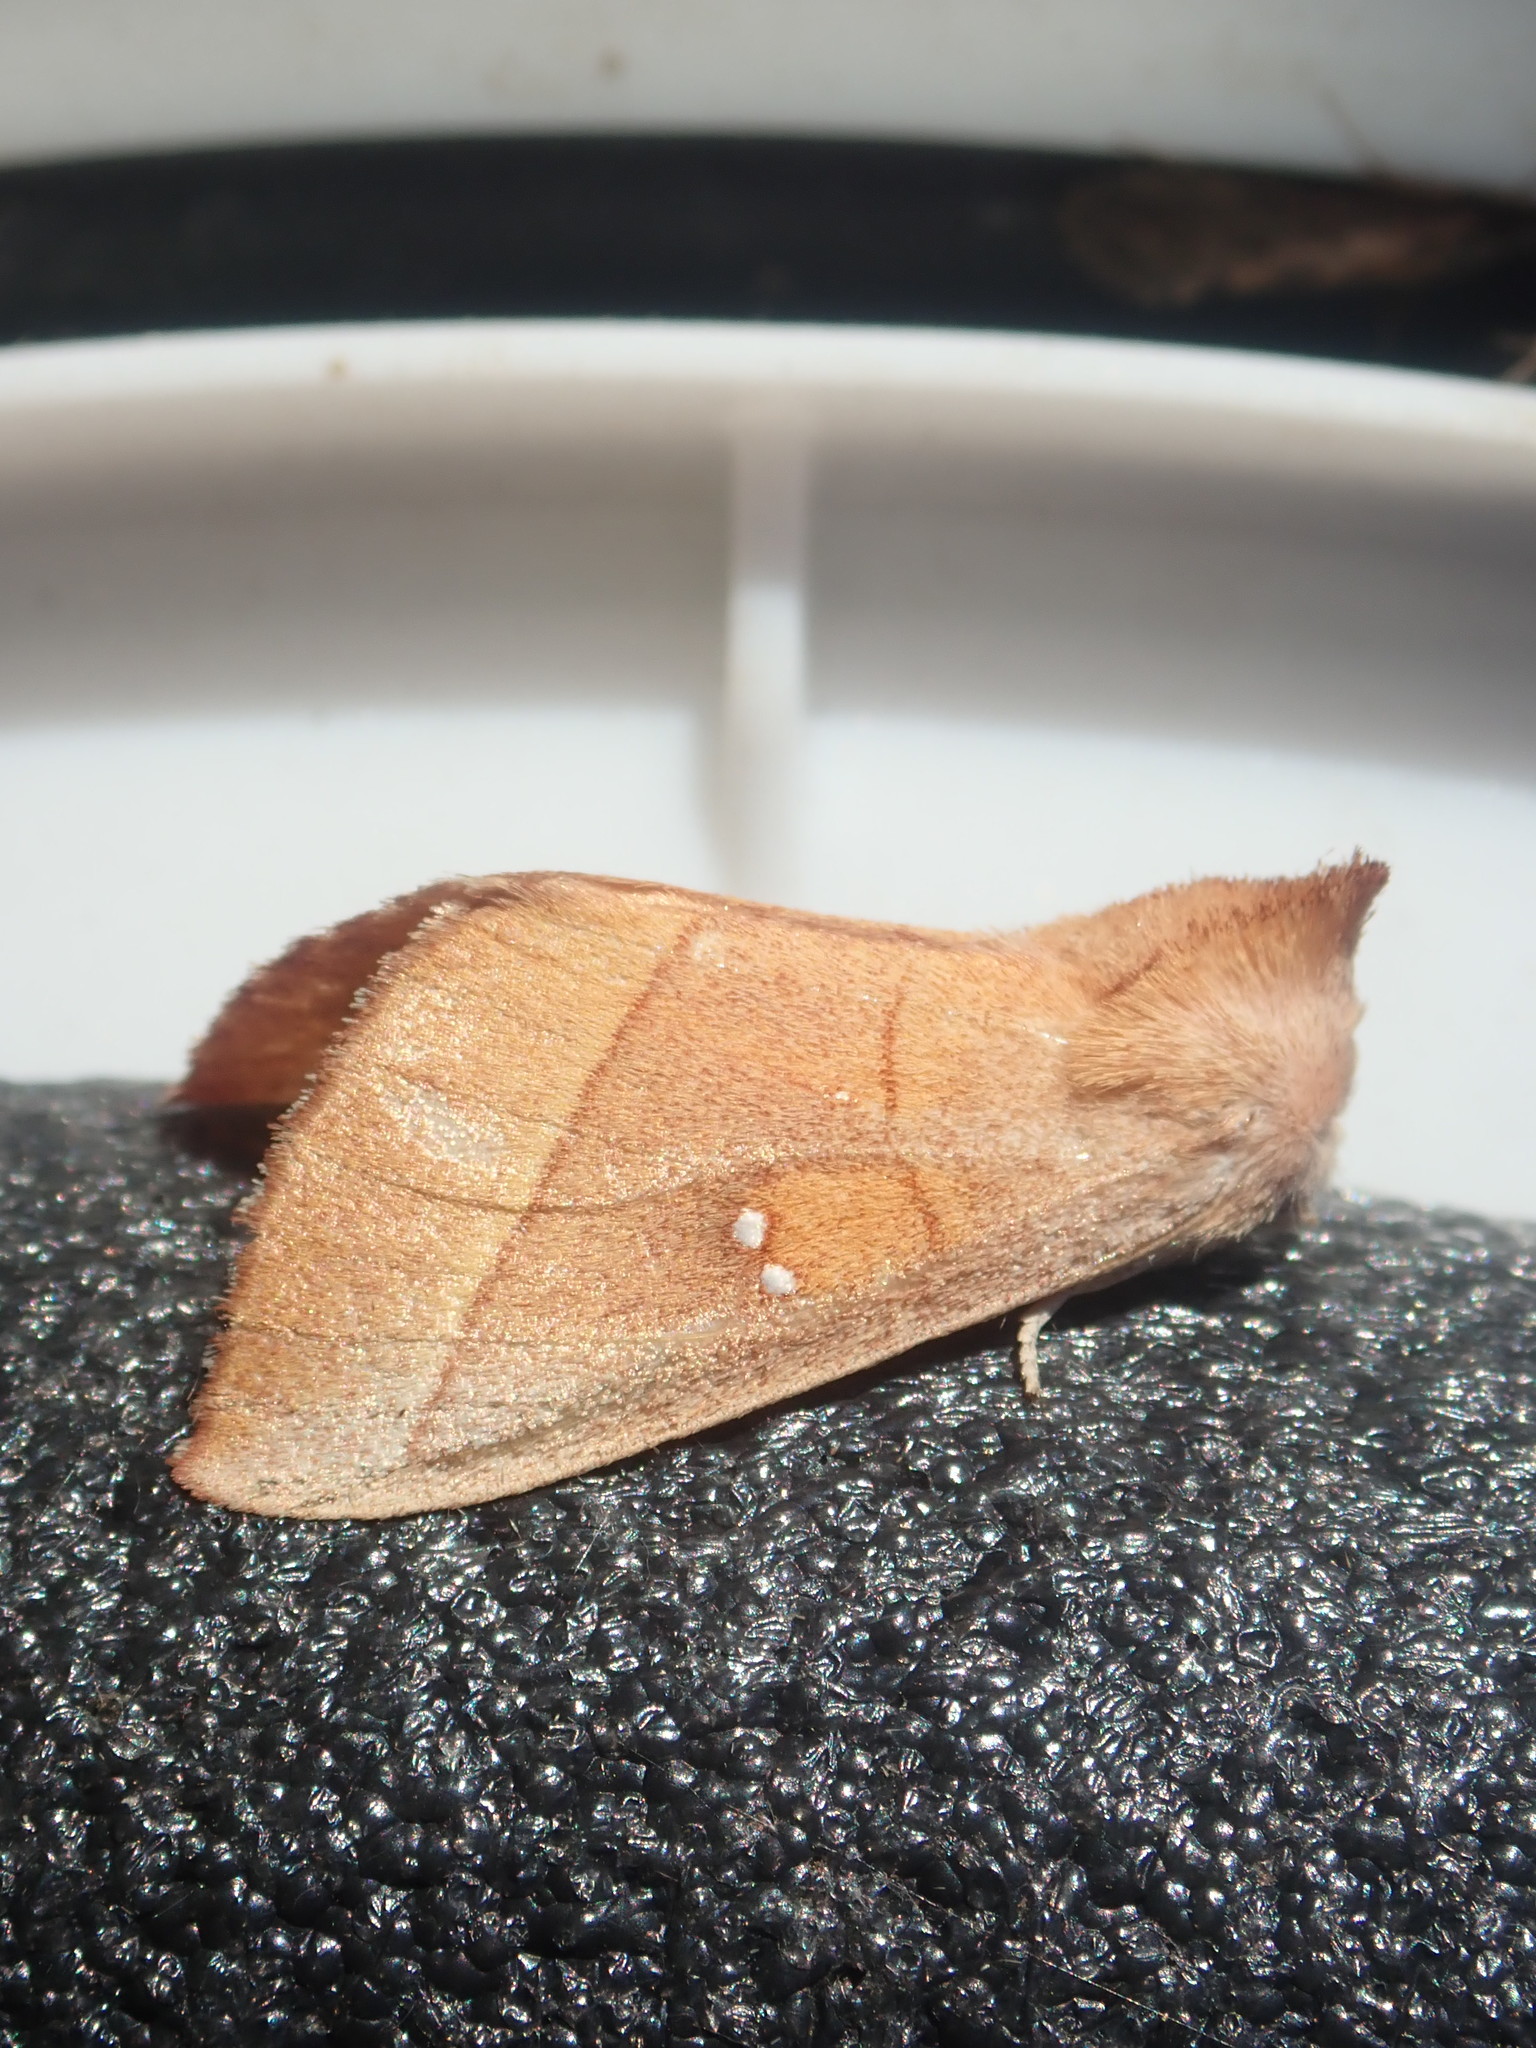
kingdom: Animalia
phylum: Arthropoda
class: Insecta
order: Lepidoptera
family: Notodontidae
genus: Nadata
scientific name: Nadata gibbosa
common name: White-dotted prominent
